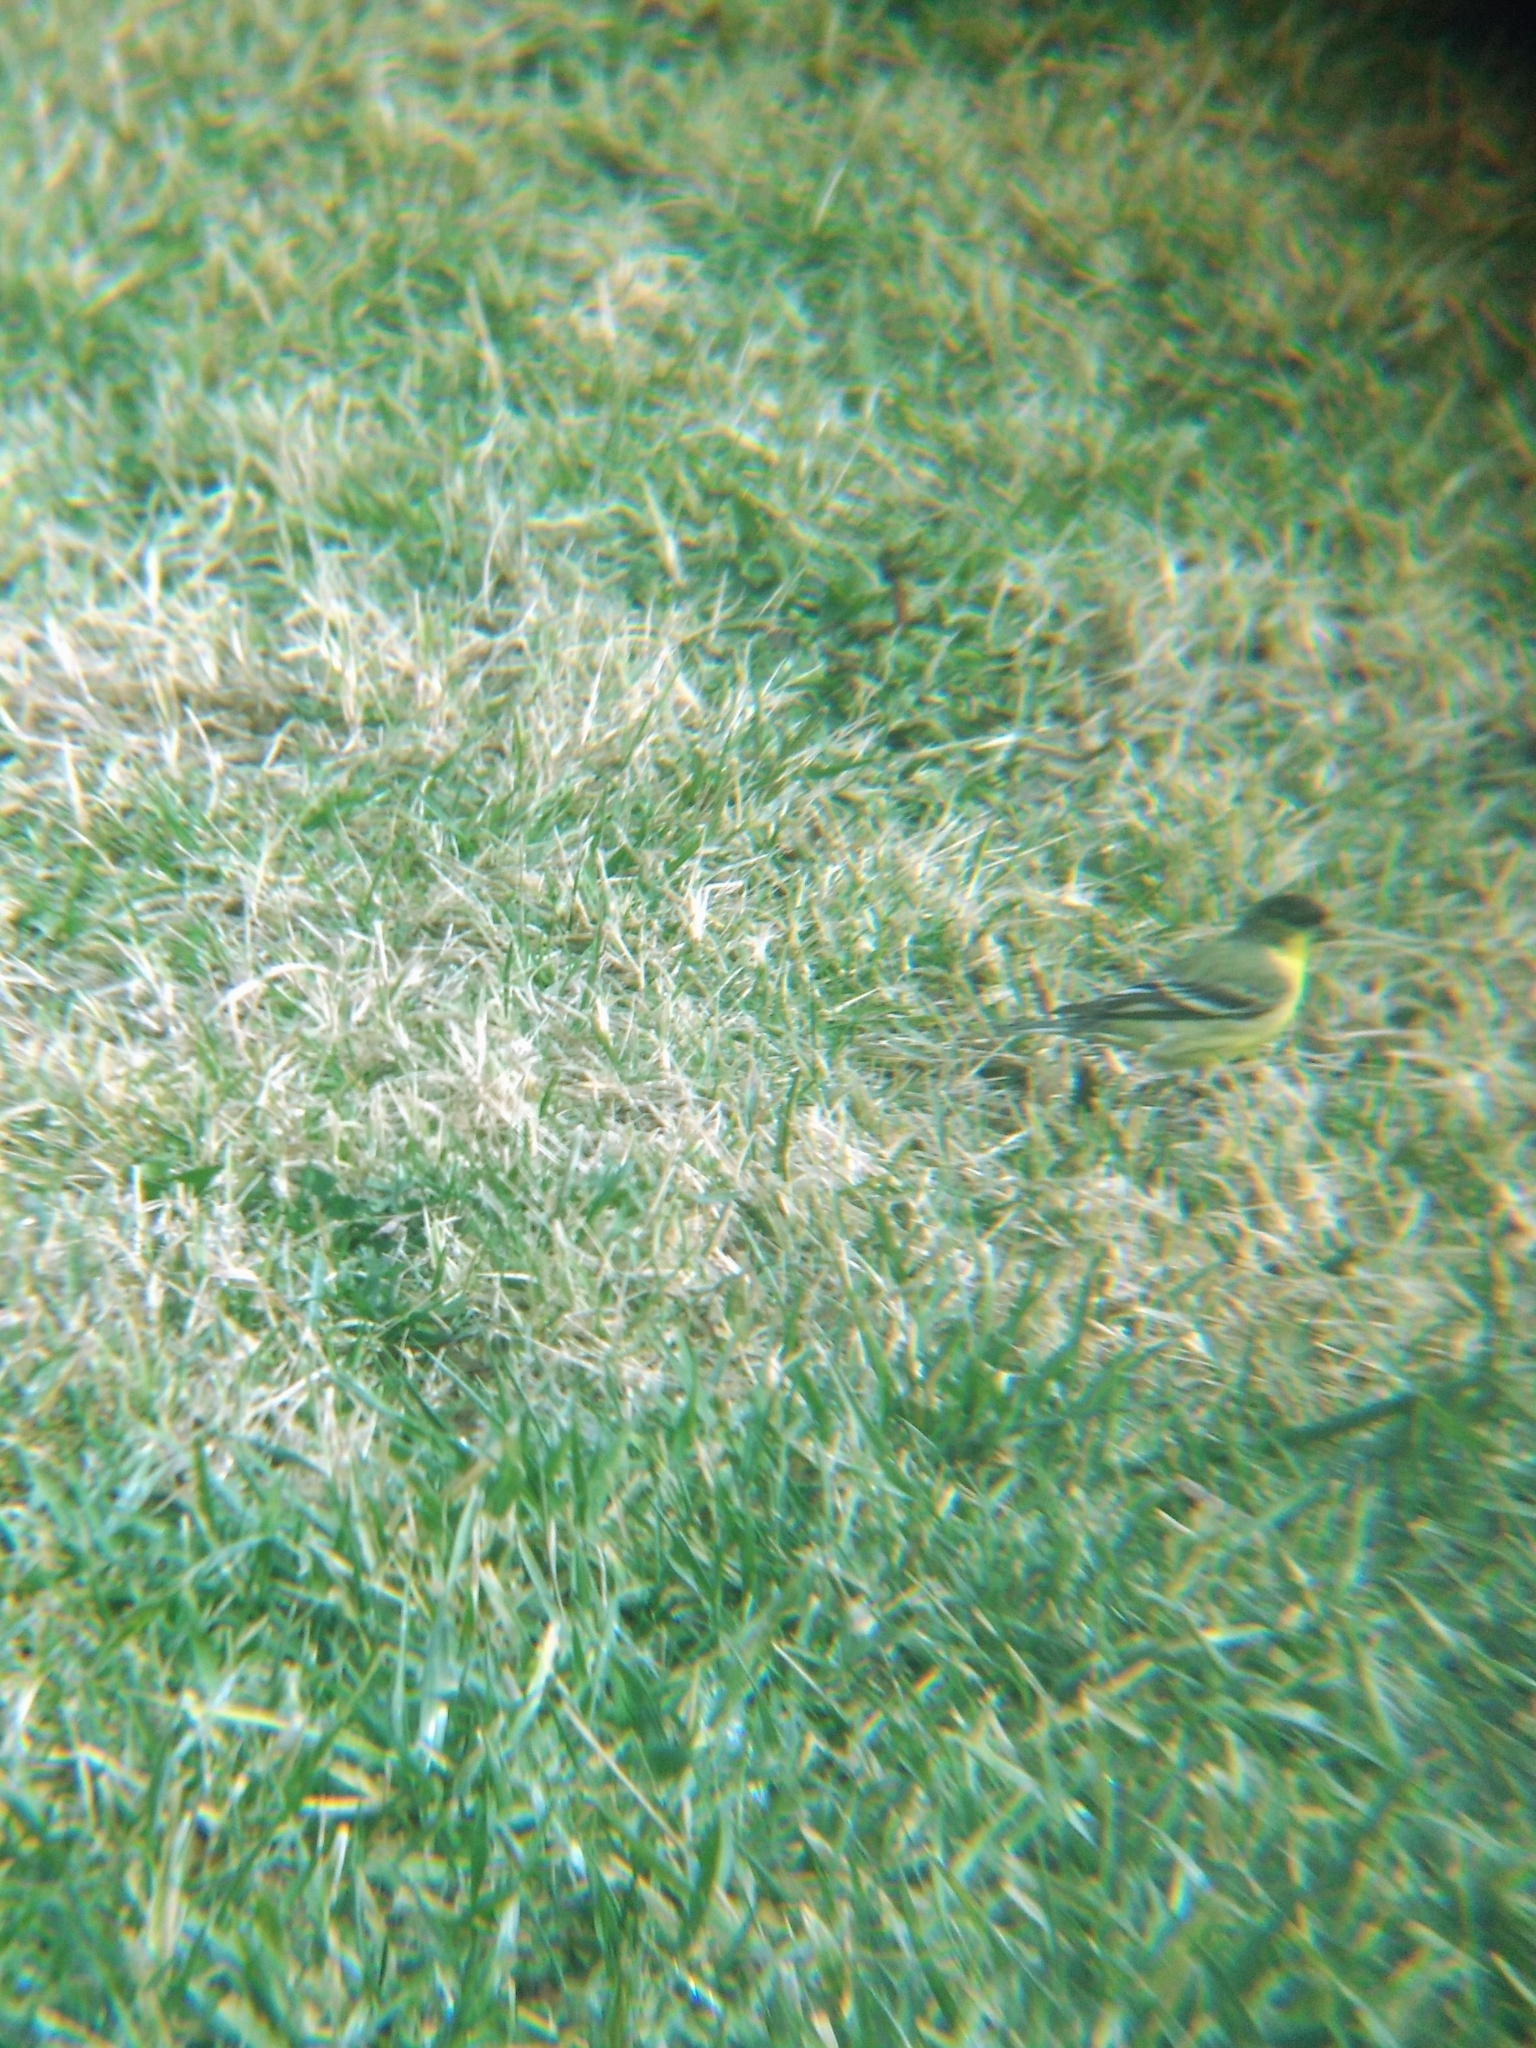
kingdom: Animalia
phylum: Chordata
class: Aves
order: Passeriformes
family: Fringillidae
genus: Spinus
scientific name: Spinus psaltria
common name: Lesser goldfinch
